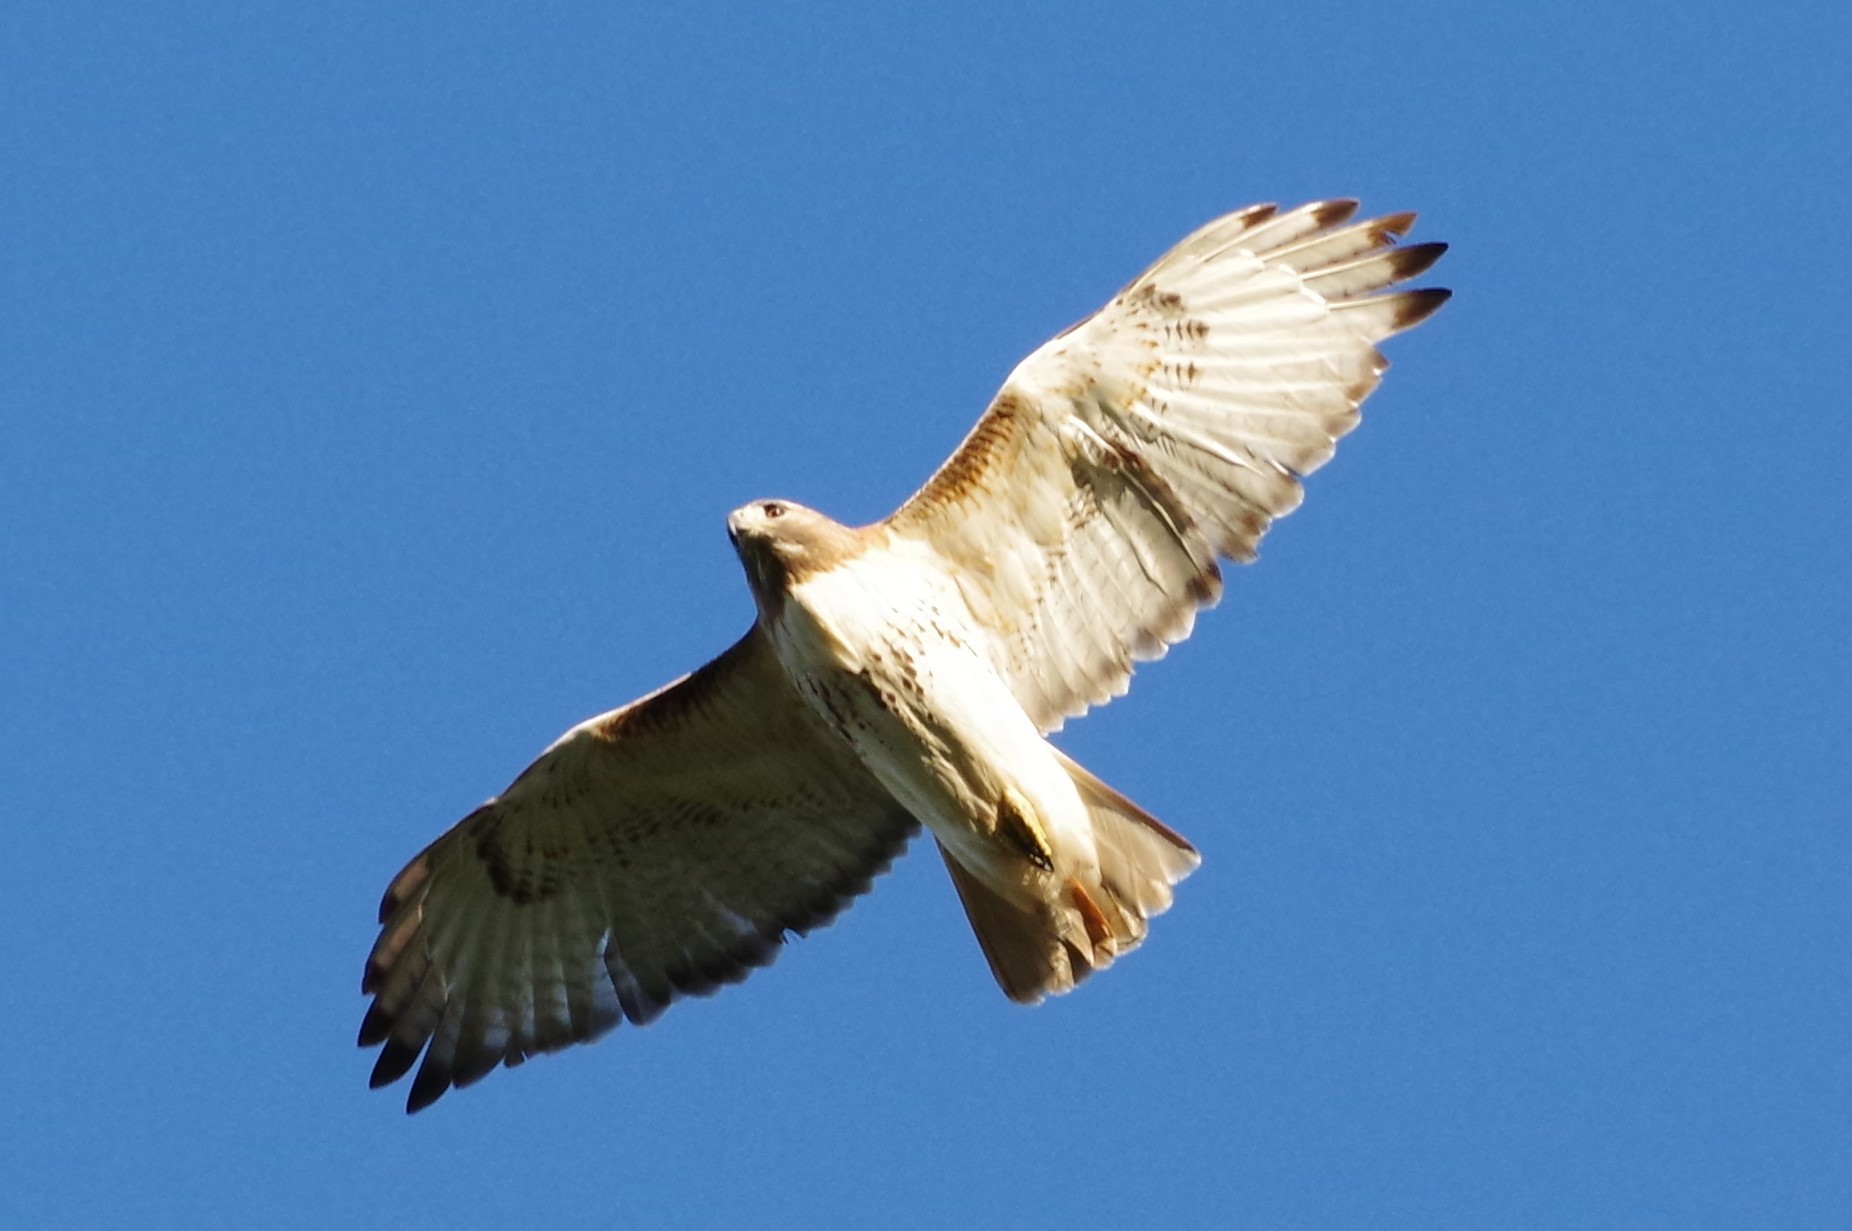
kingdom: Animalia
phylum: Chordata
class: Aves
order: Accipitriformes
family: Accipitridae
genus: Buteo
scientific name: Buteo jamaicensis
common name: Red-tailed hawk
